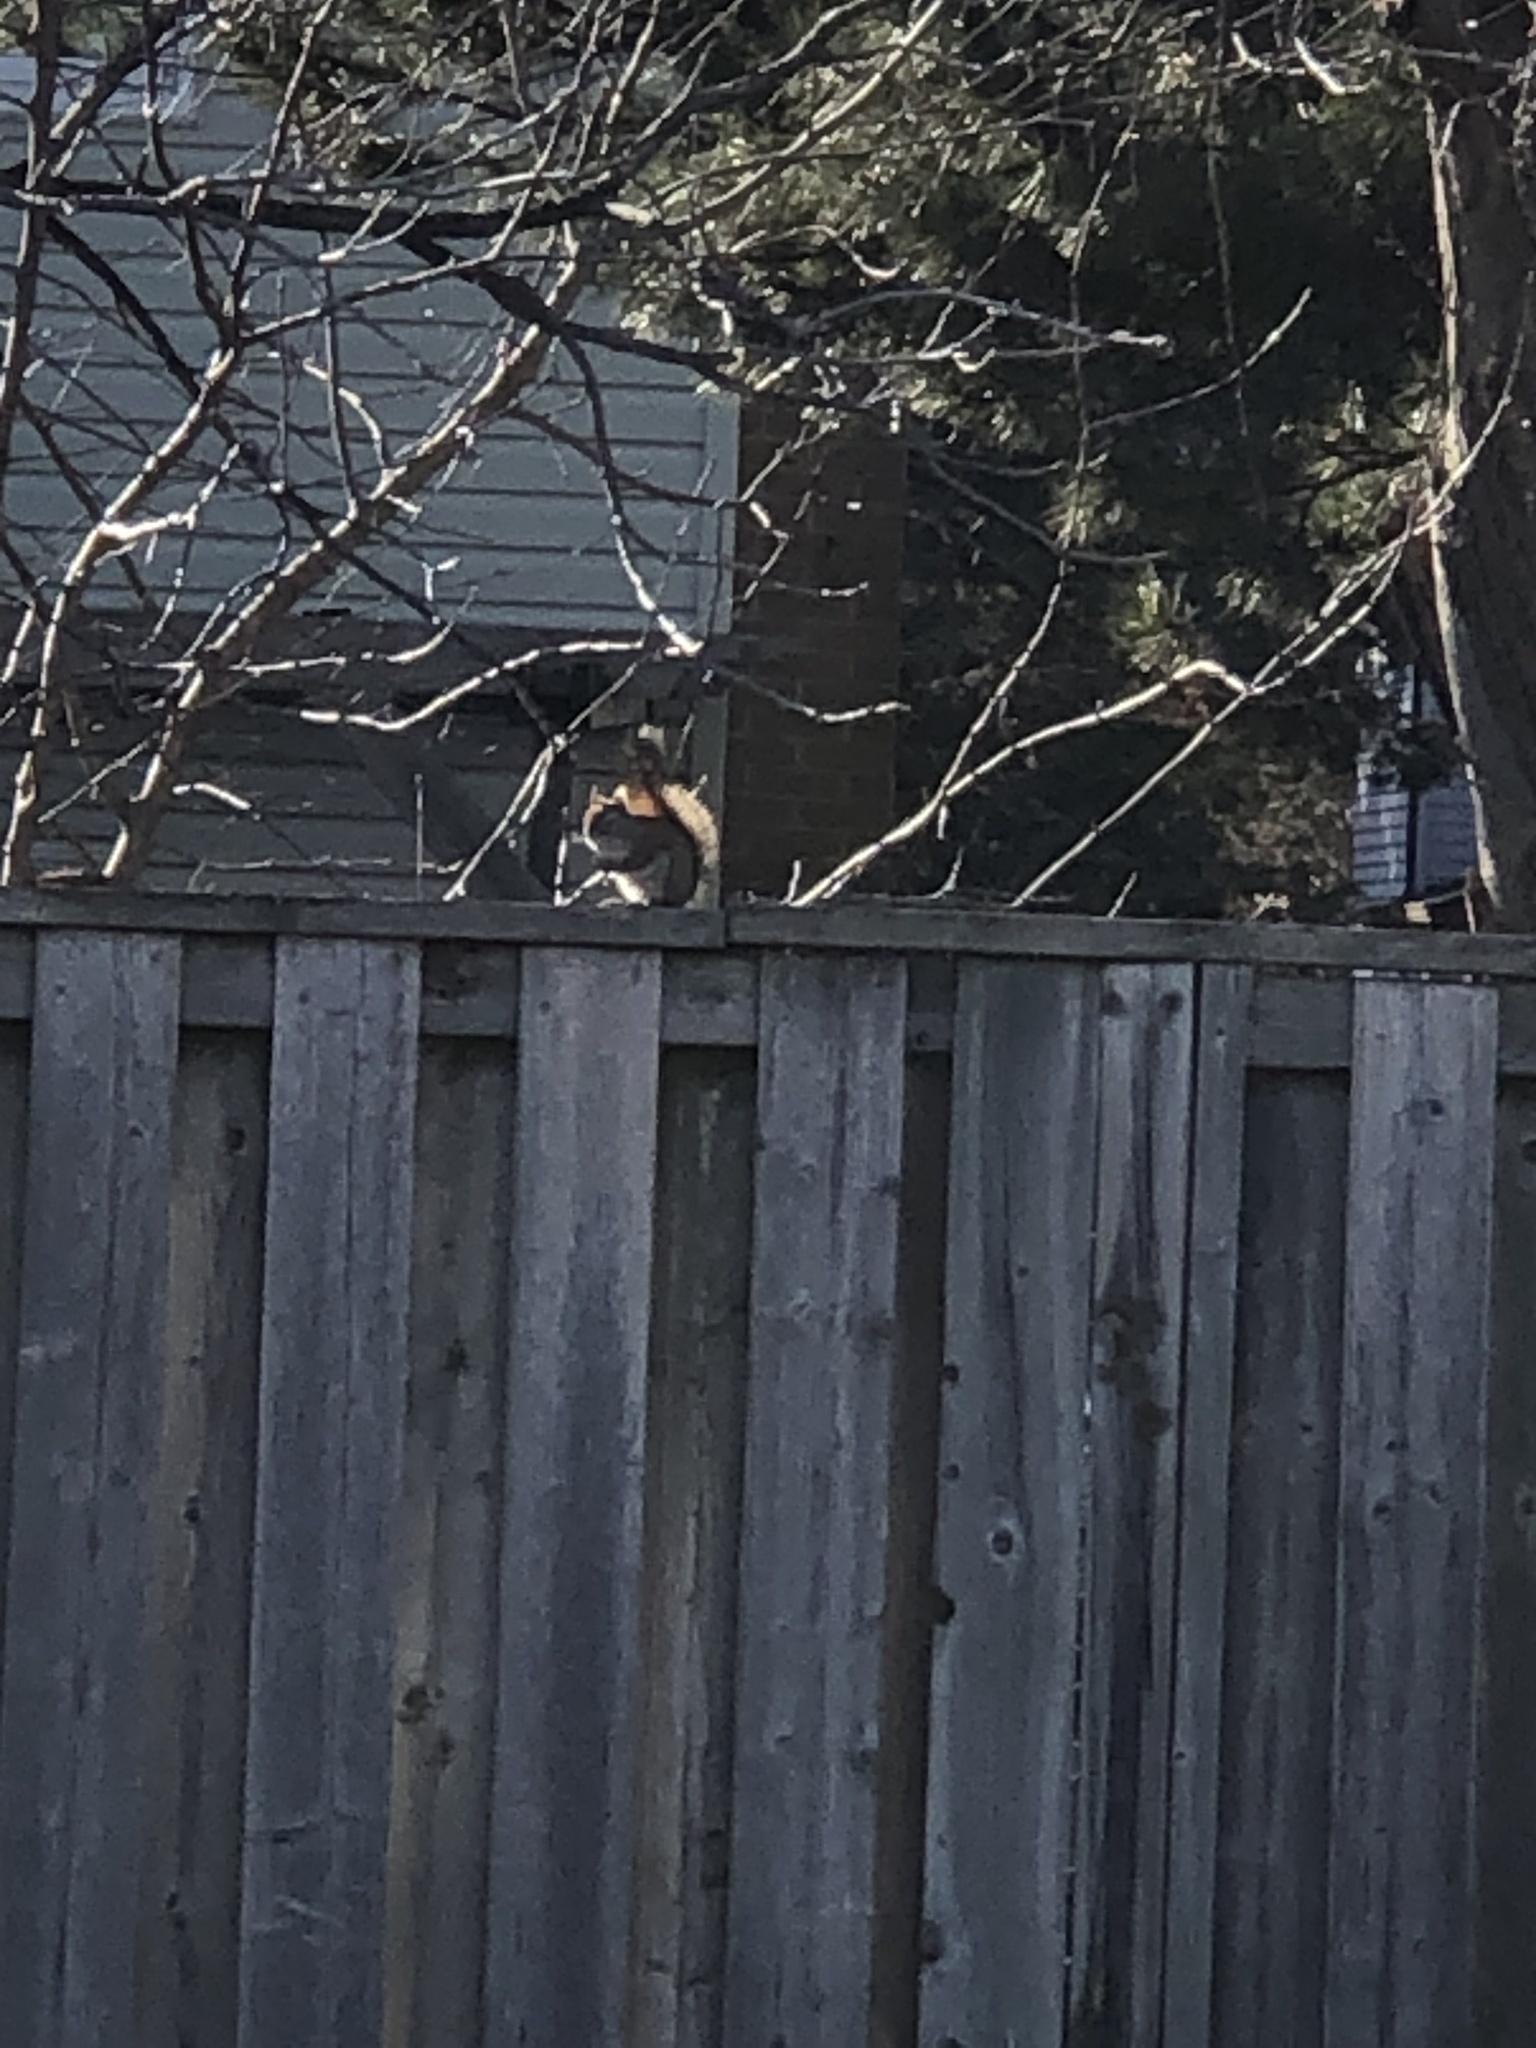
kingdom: Animalia
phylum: Chordata
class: Mammalia
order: Rodentia
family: Sciuridae
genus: Tamiasciurus
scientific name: Tamiasciurus hudsonicus
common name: Red squirrel
